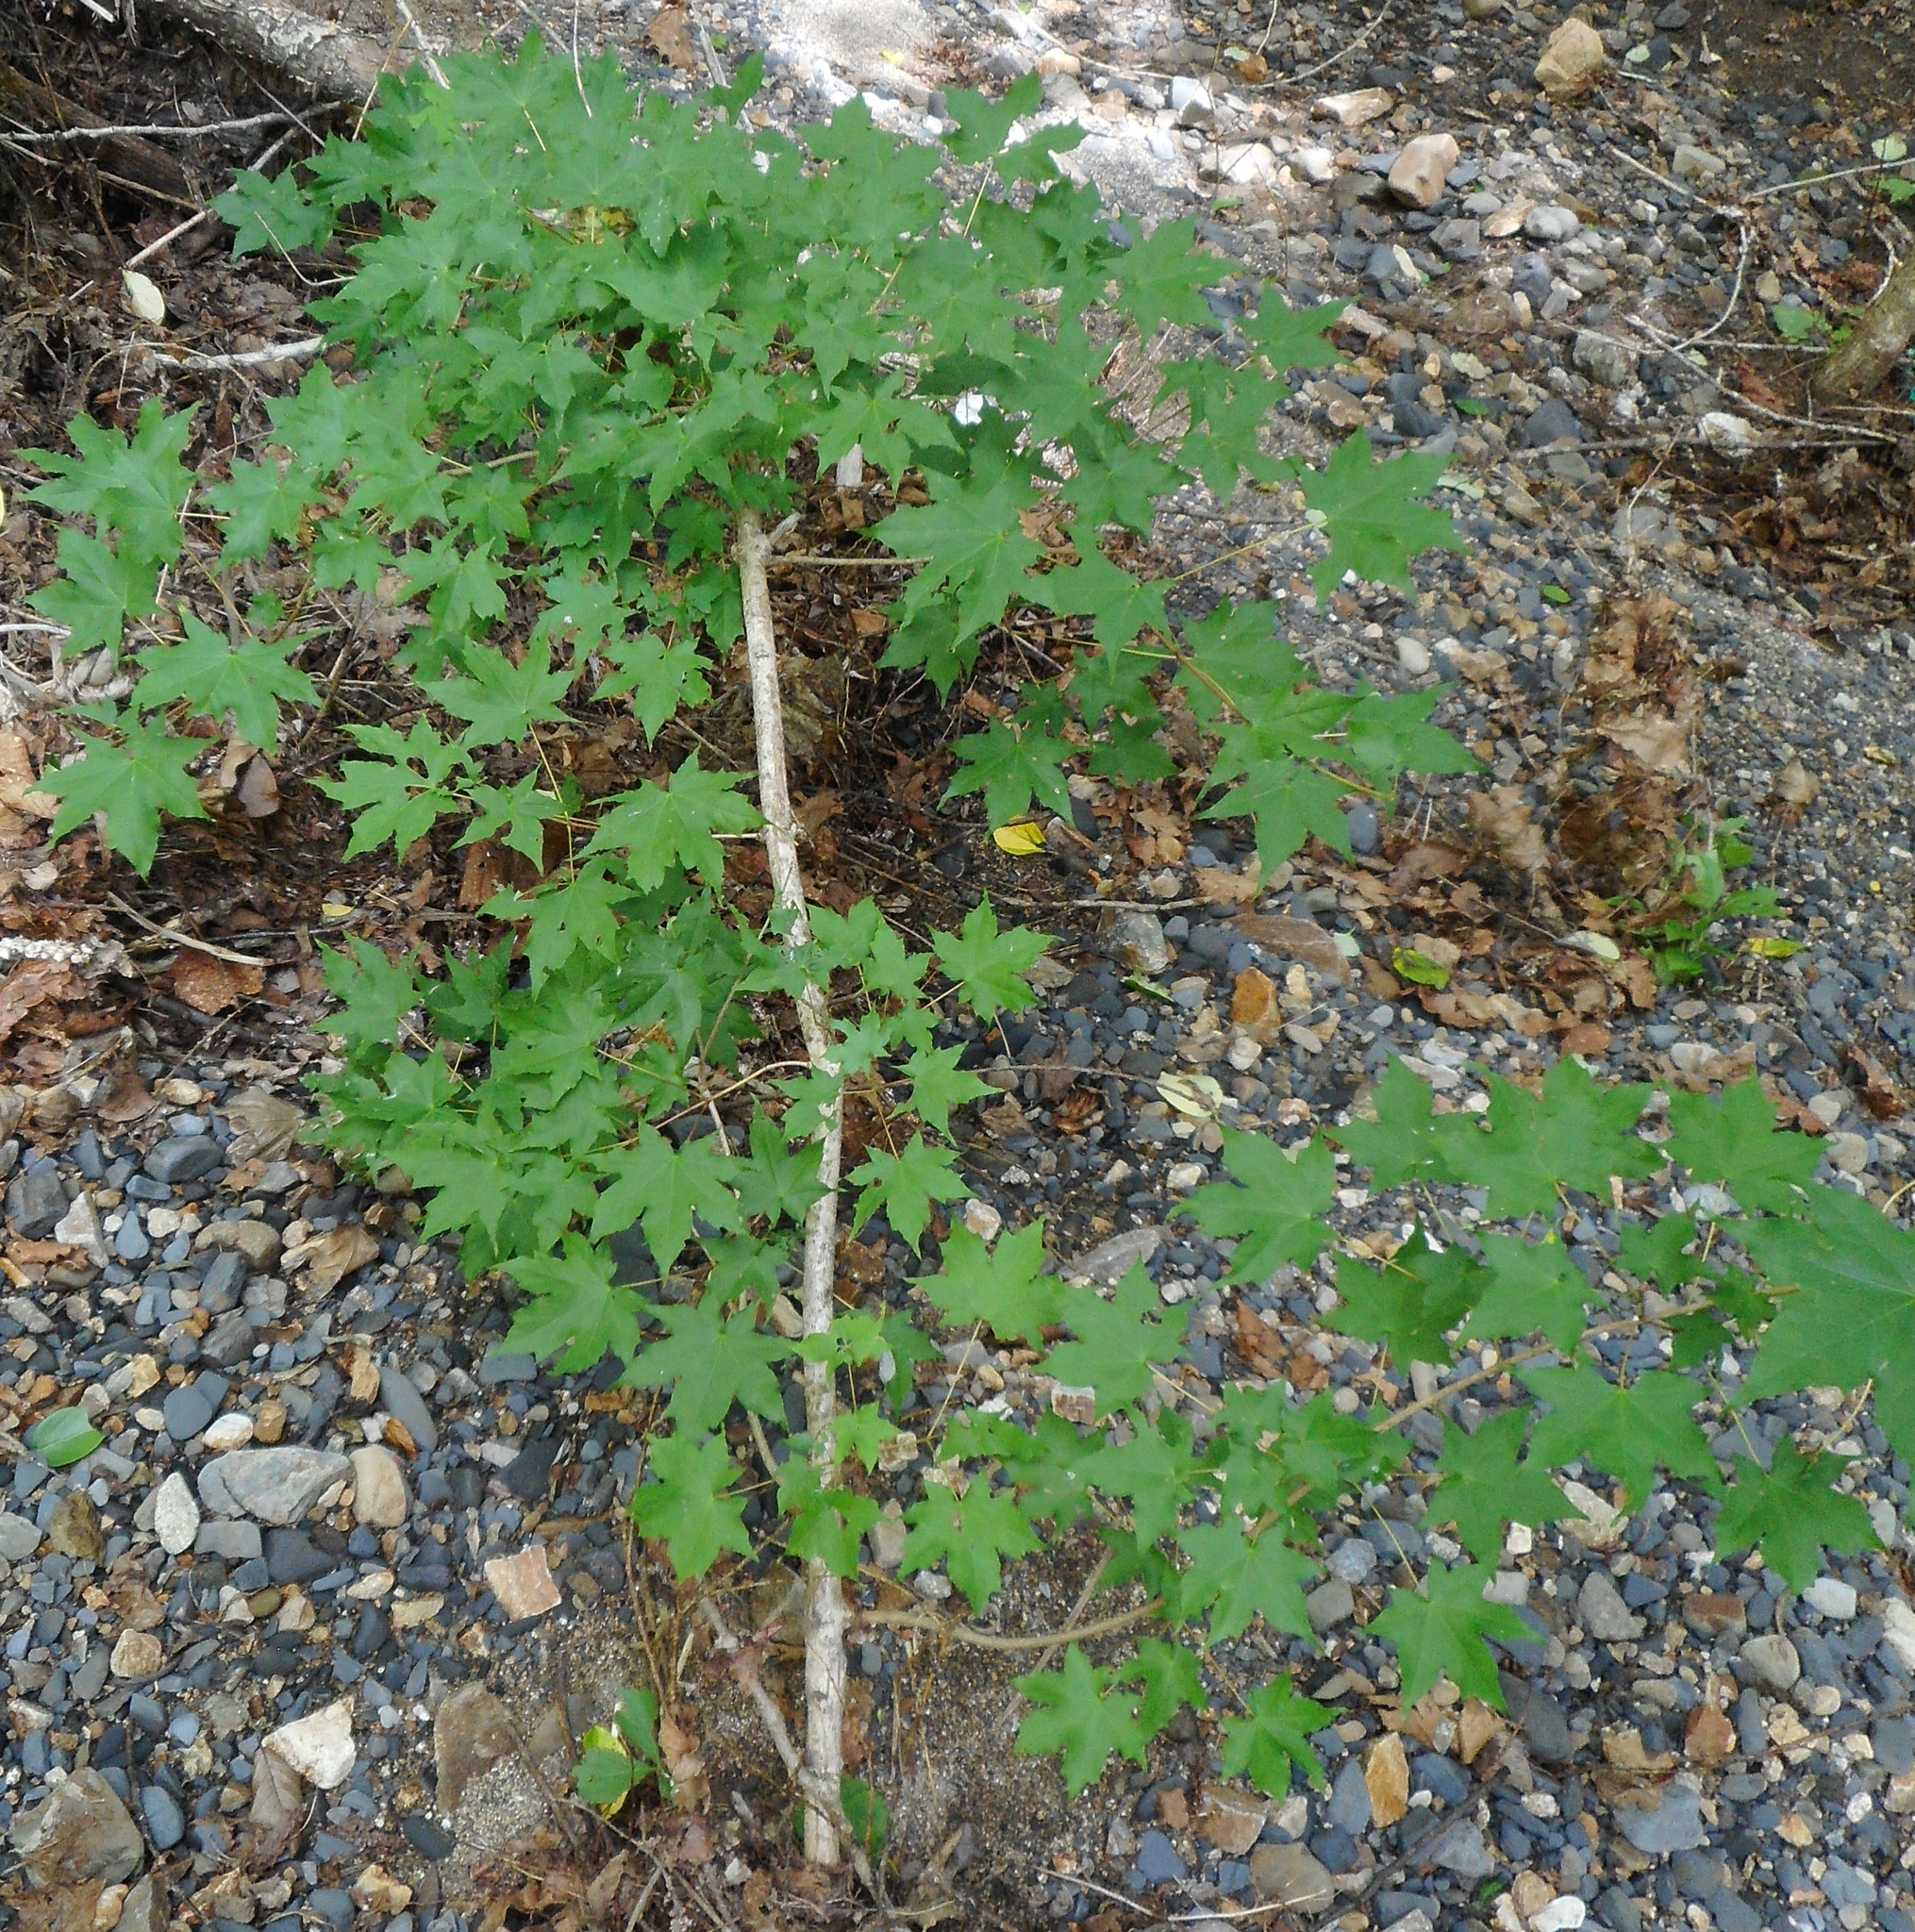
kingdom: Plantae
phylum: Tracheophyta
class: Magnoliopsida
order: Sapindales
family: Sapindaceae
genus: Acer
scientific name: Acer pictum
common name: The painted maple
